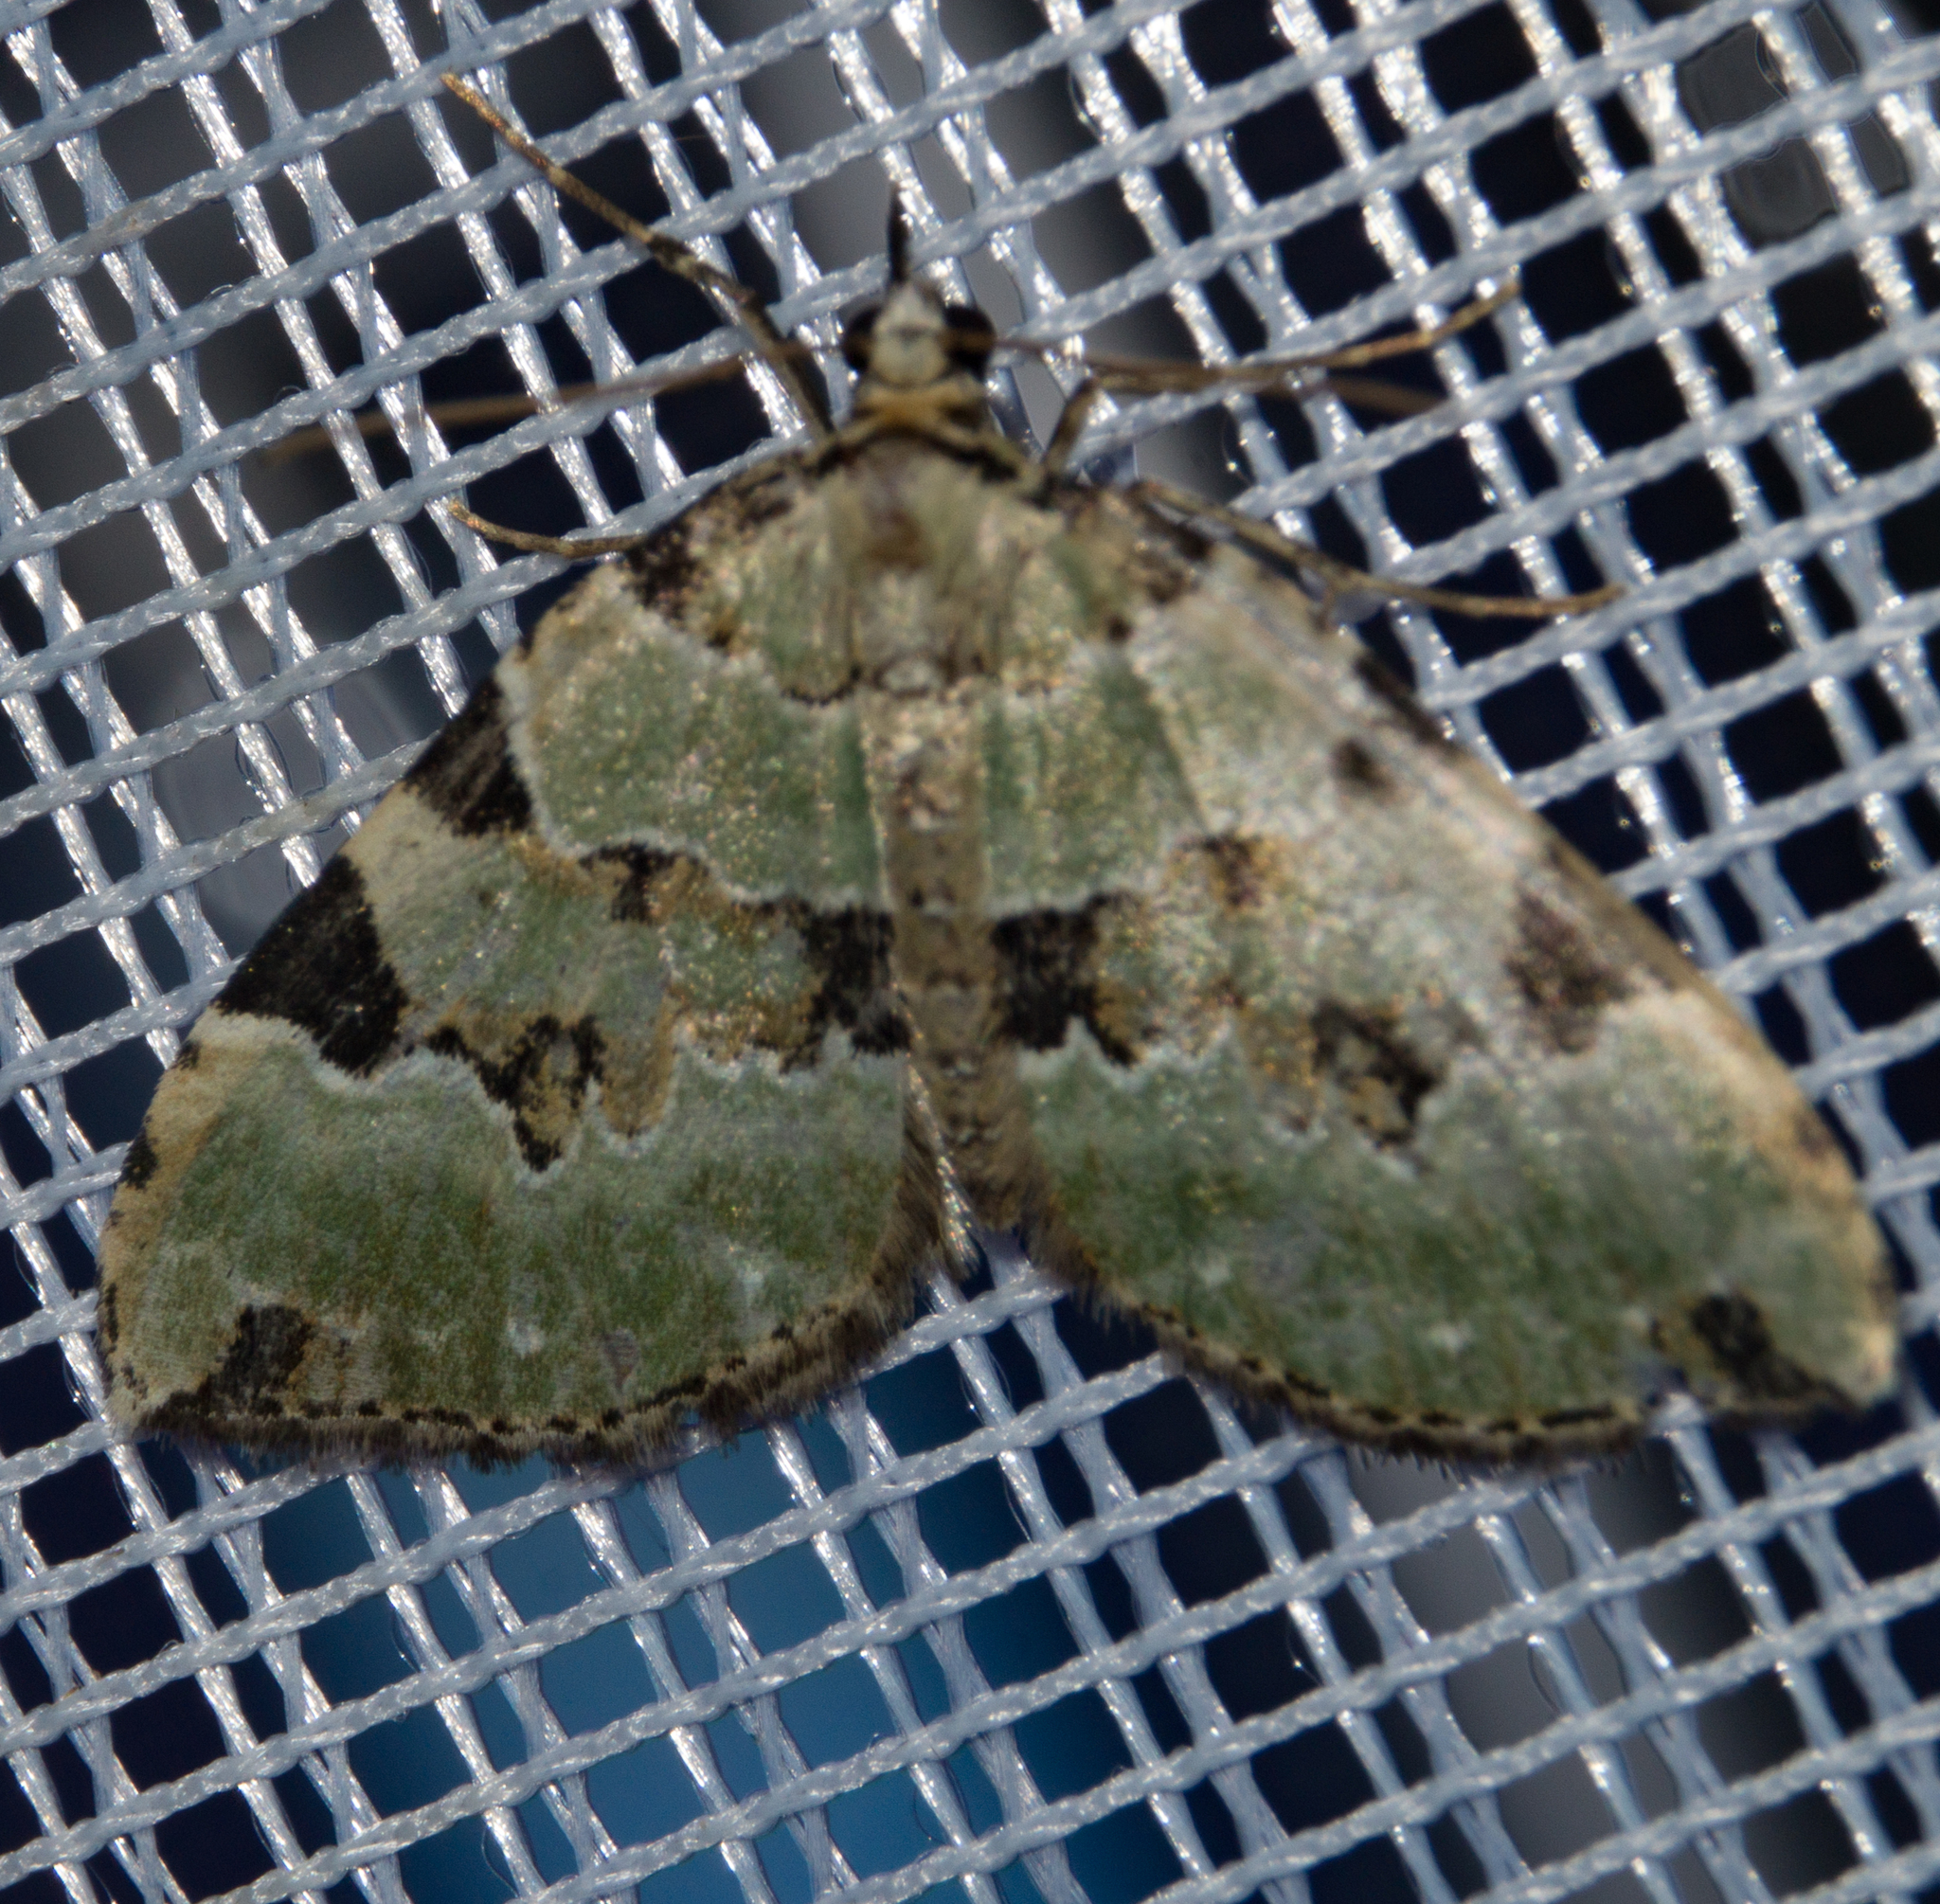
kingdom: Animalia
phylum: Arthropoda
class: Insecta
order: Lepidoptera
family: Geometridae
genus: Colostygia
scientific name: Colostygia pectinataria
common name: Green carpet
